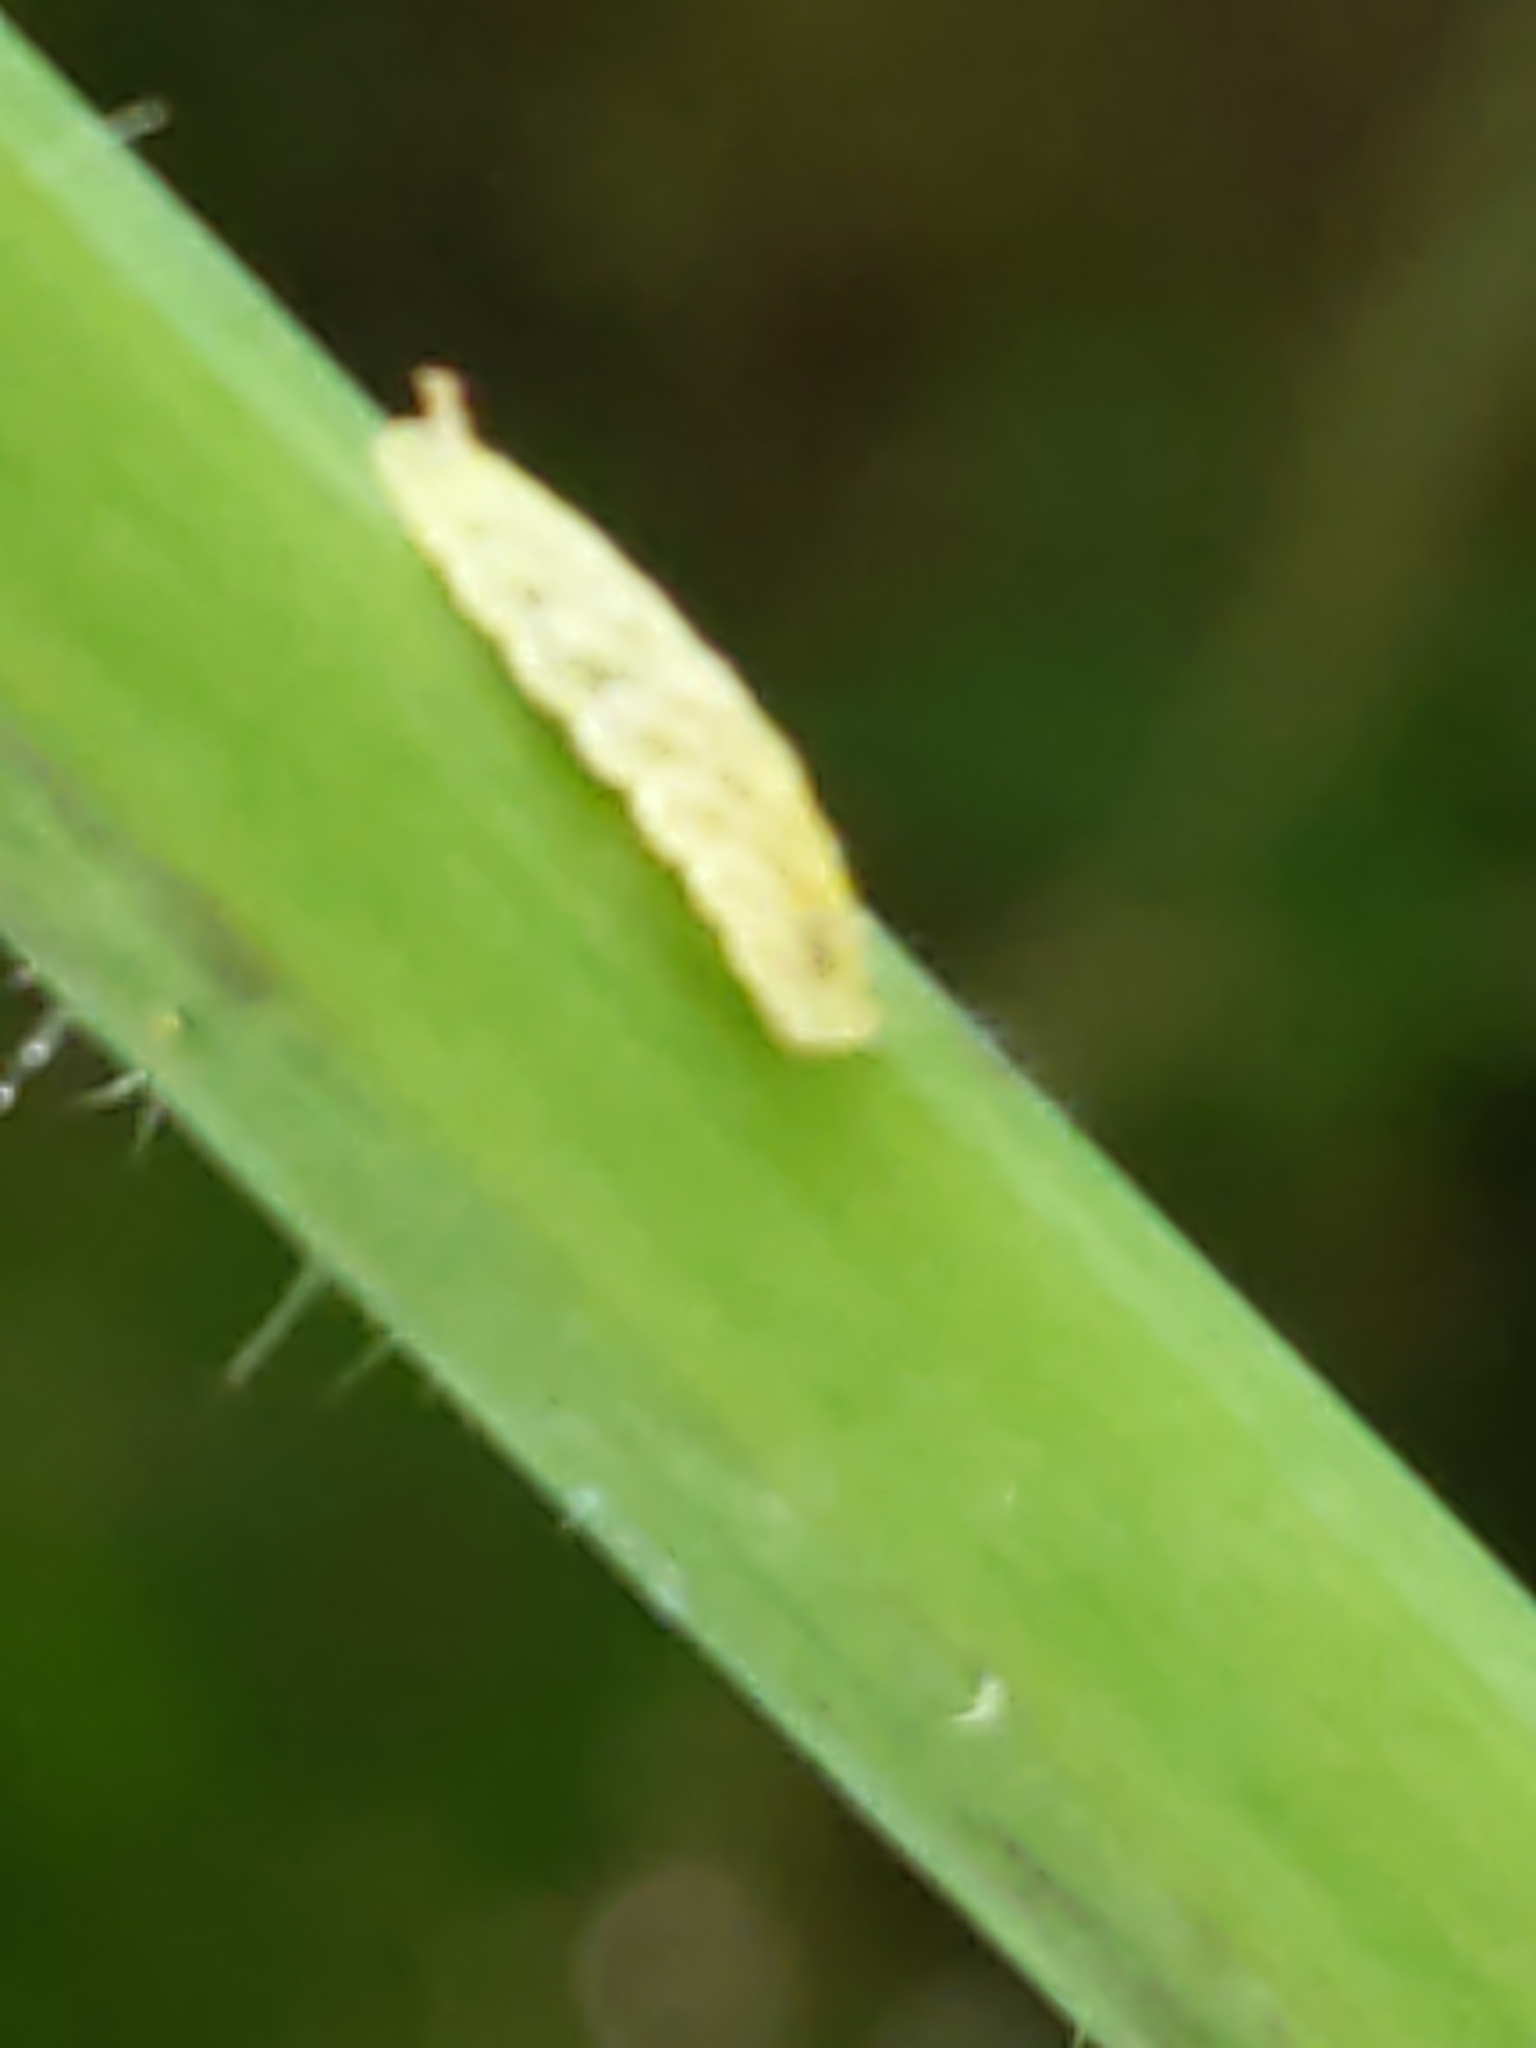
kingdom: Animalia
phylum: Arthropoda
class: Insecta
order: Diptera
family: Syrphidae
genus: Epistrophella
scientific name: Epistrophella emarginata
